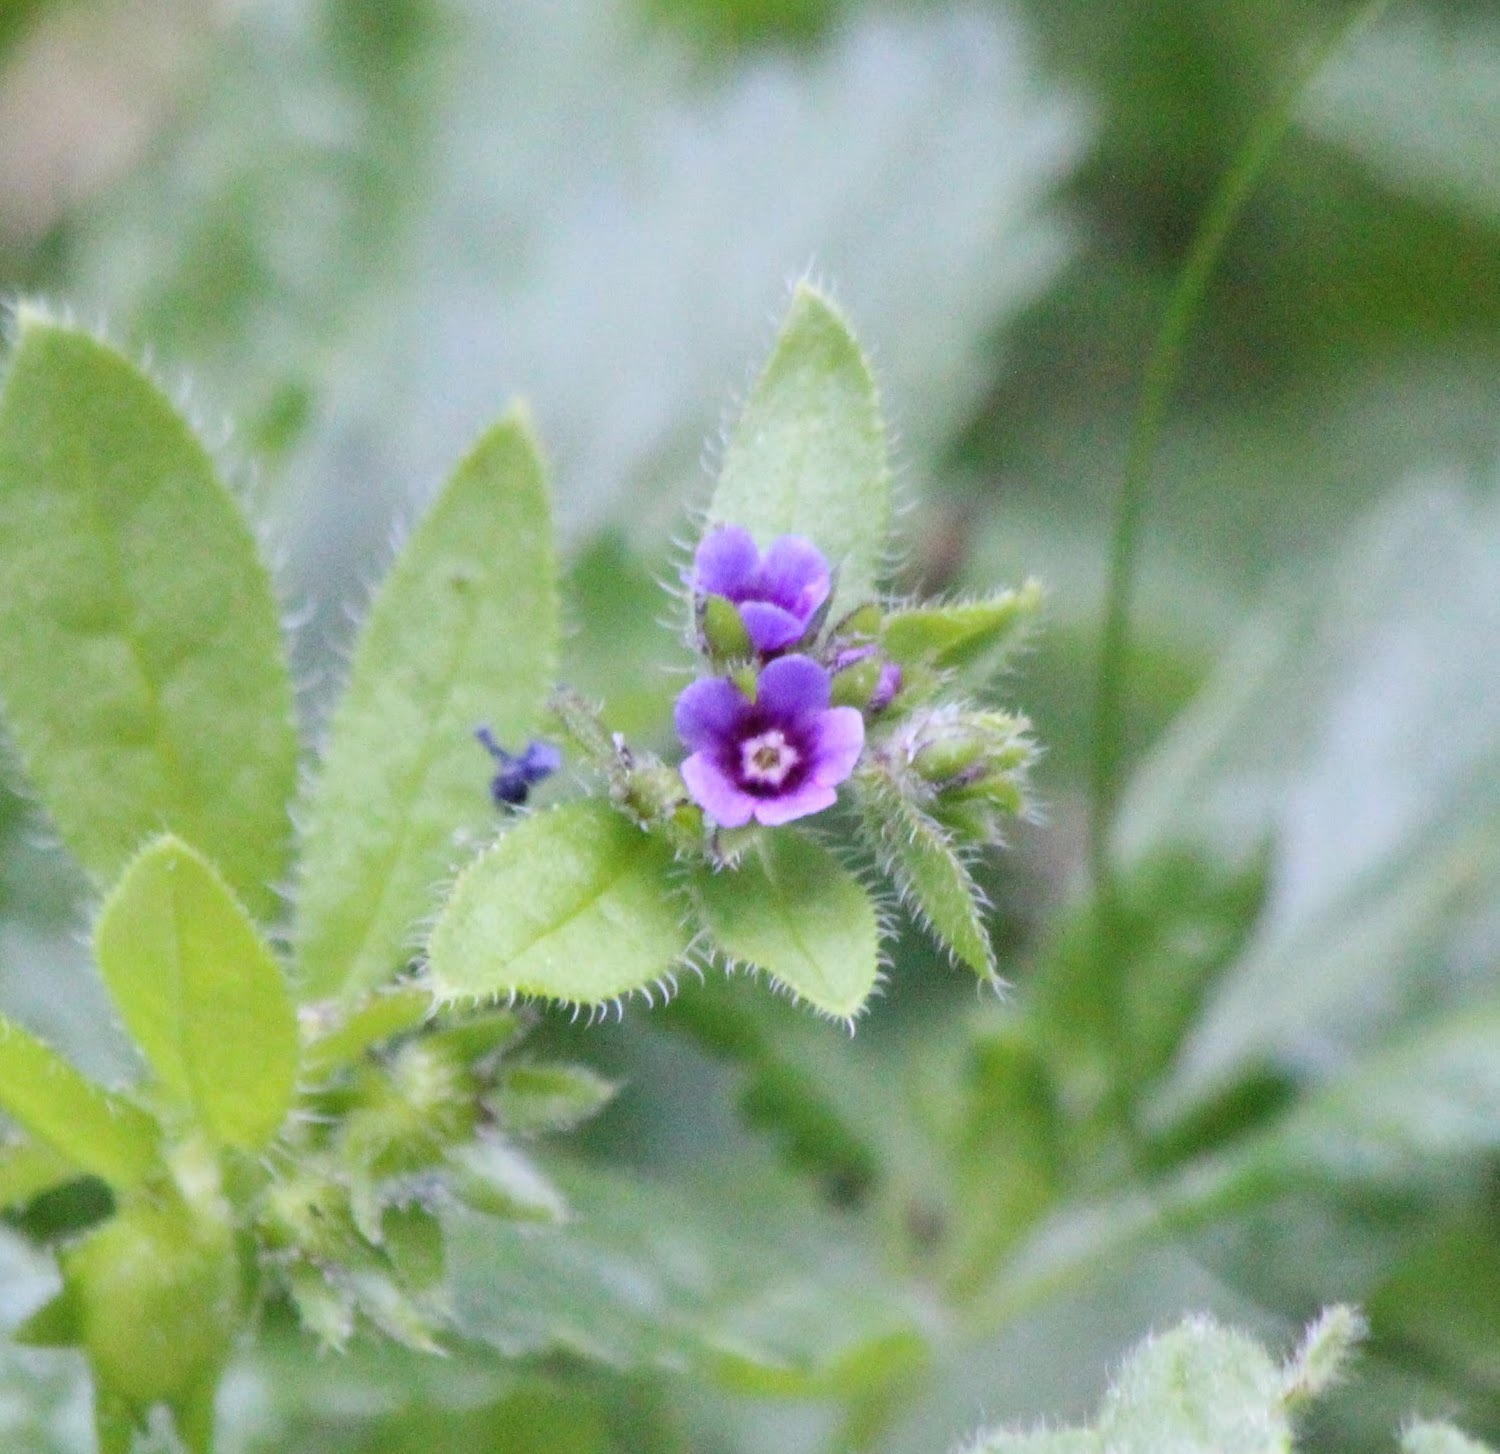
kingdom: Plantae
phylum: Tracheophyta
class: Magnoliopsida
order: Boraginales
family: Boraginaceae
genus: Asperugo
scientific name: Asperugo procumbens
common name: Madwort
